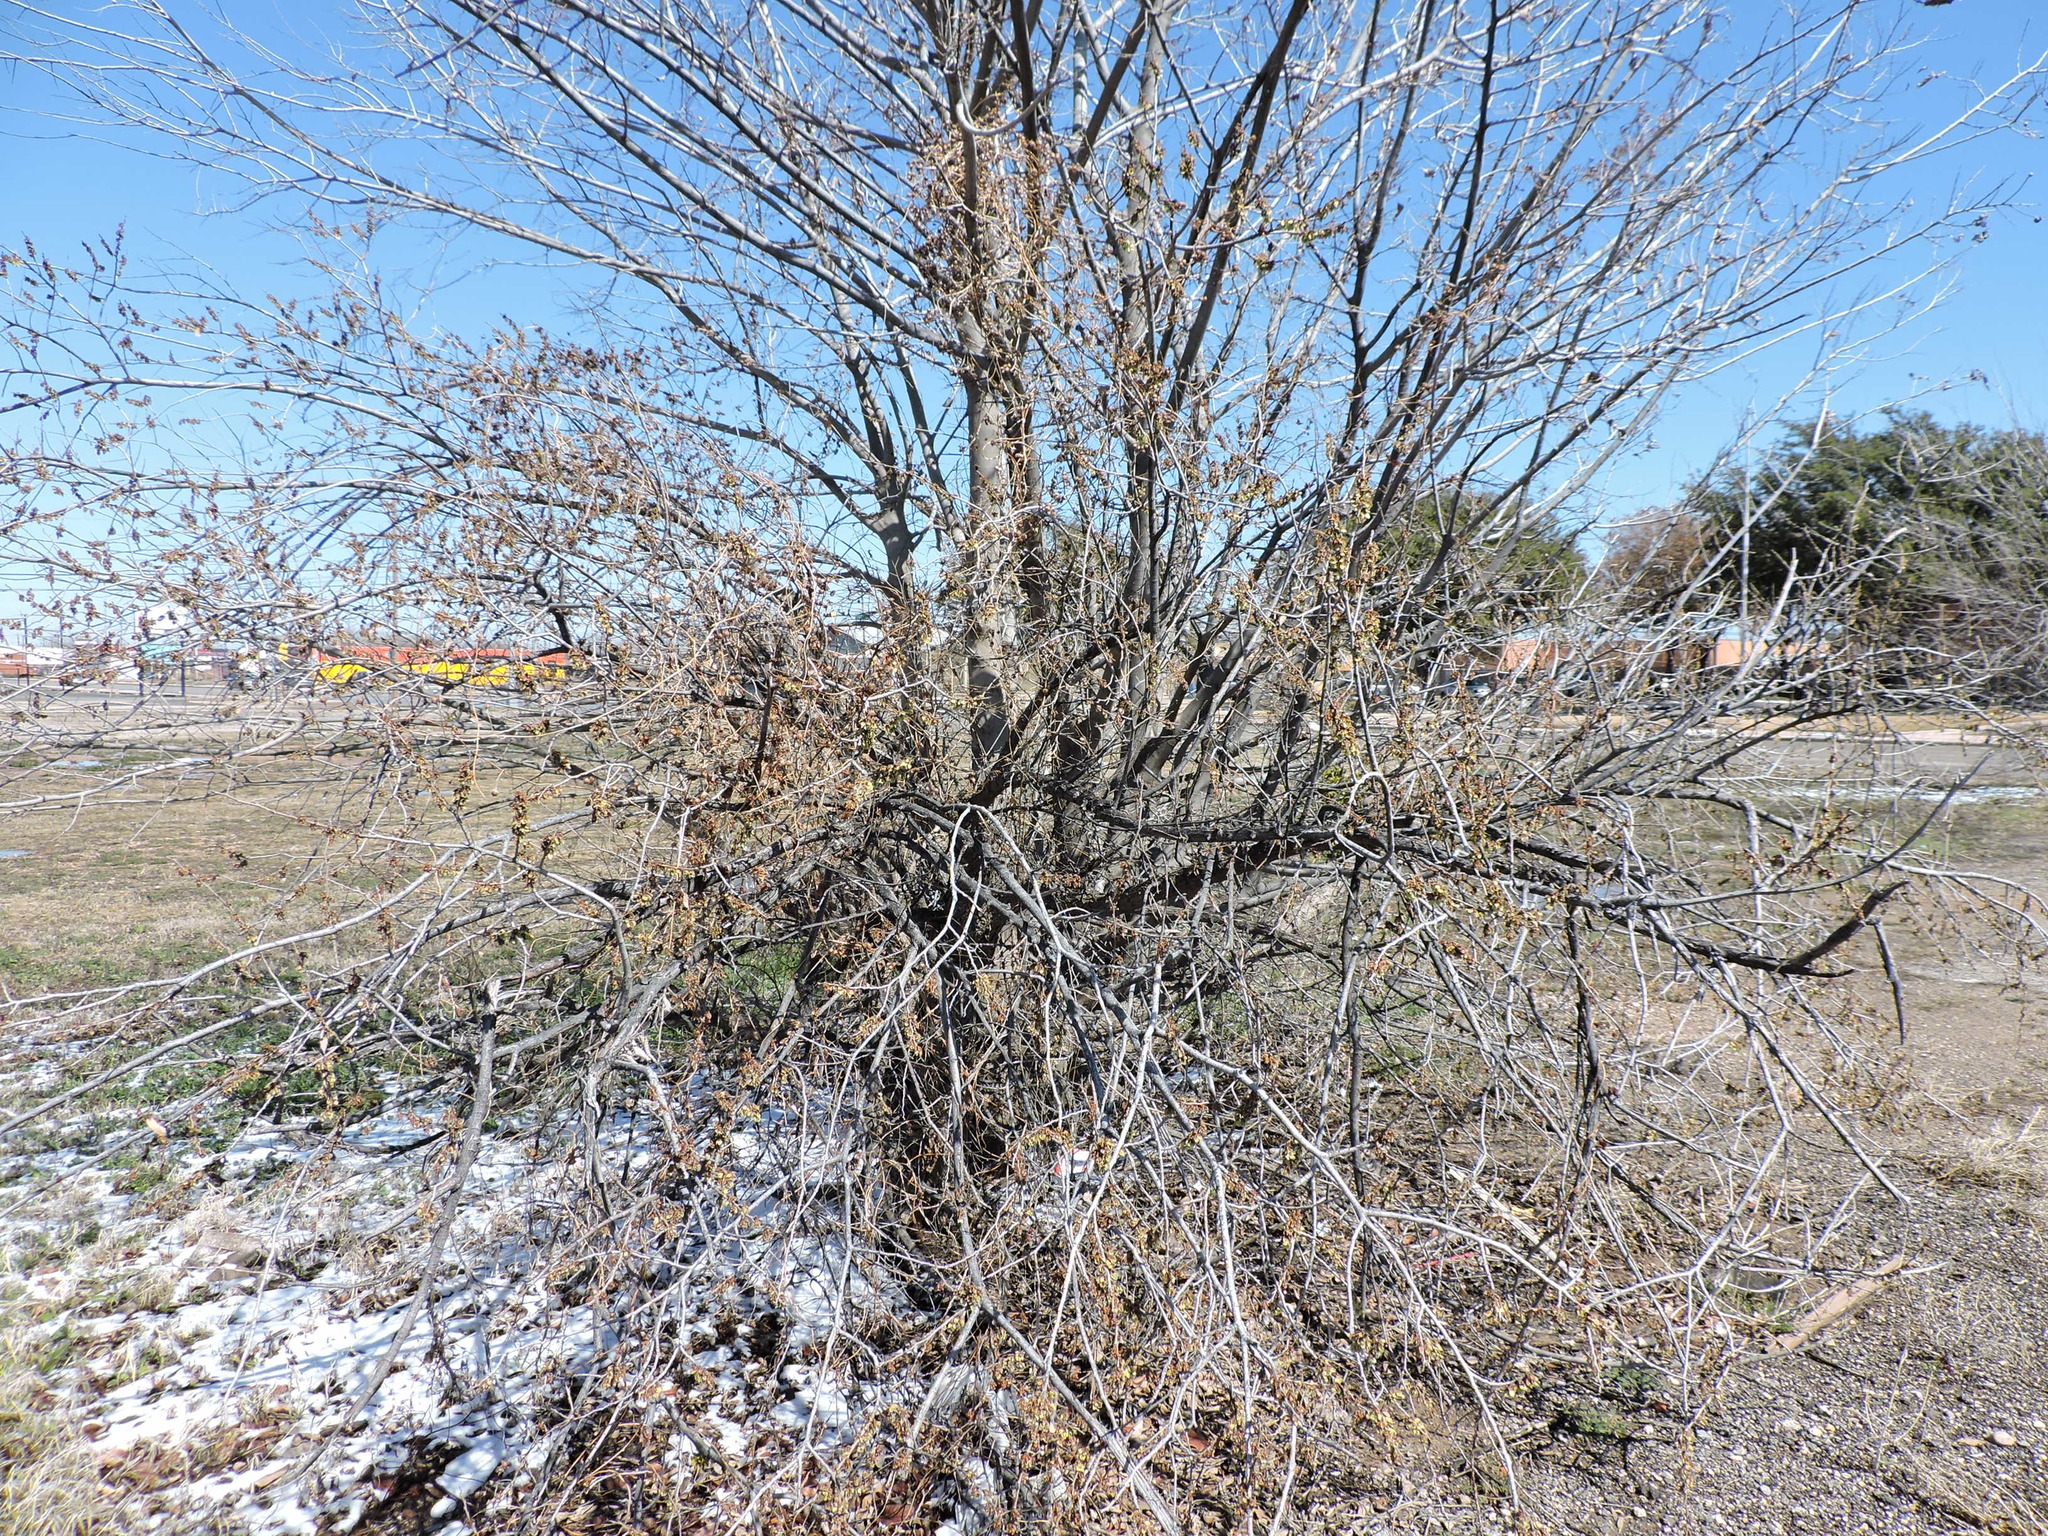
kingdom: Plantae
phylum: Tracheophyta
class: Magnoliopsida
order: Rosales
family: Ulmaceae
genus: Ulmus
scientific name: Ulmus americana
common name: American elm
